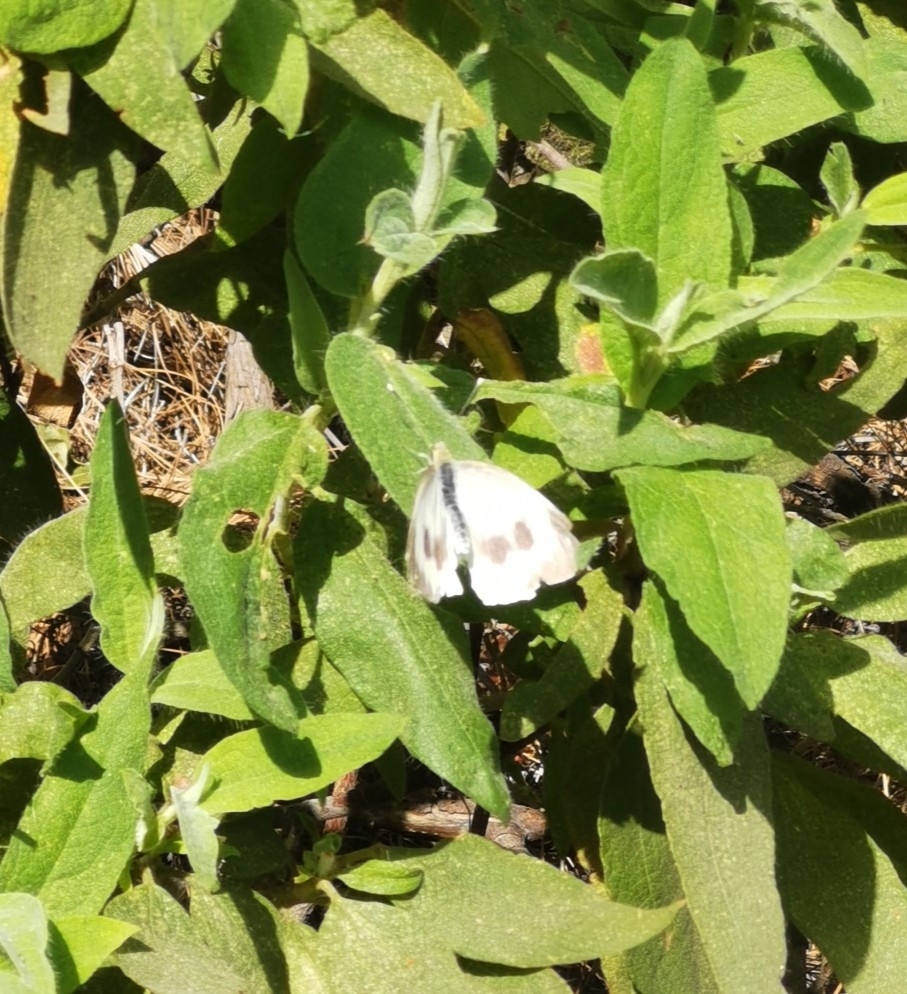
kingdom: Animalia
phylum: Arthropoda
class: Insecta
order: Lepidoptera
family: Pieridae
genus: Pieris
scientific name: Pieris cheiranthi
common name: Canary islands large white
